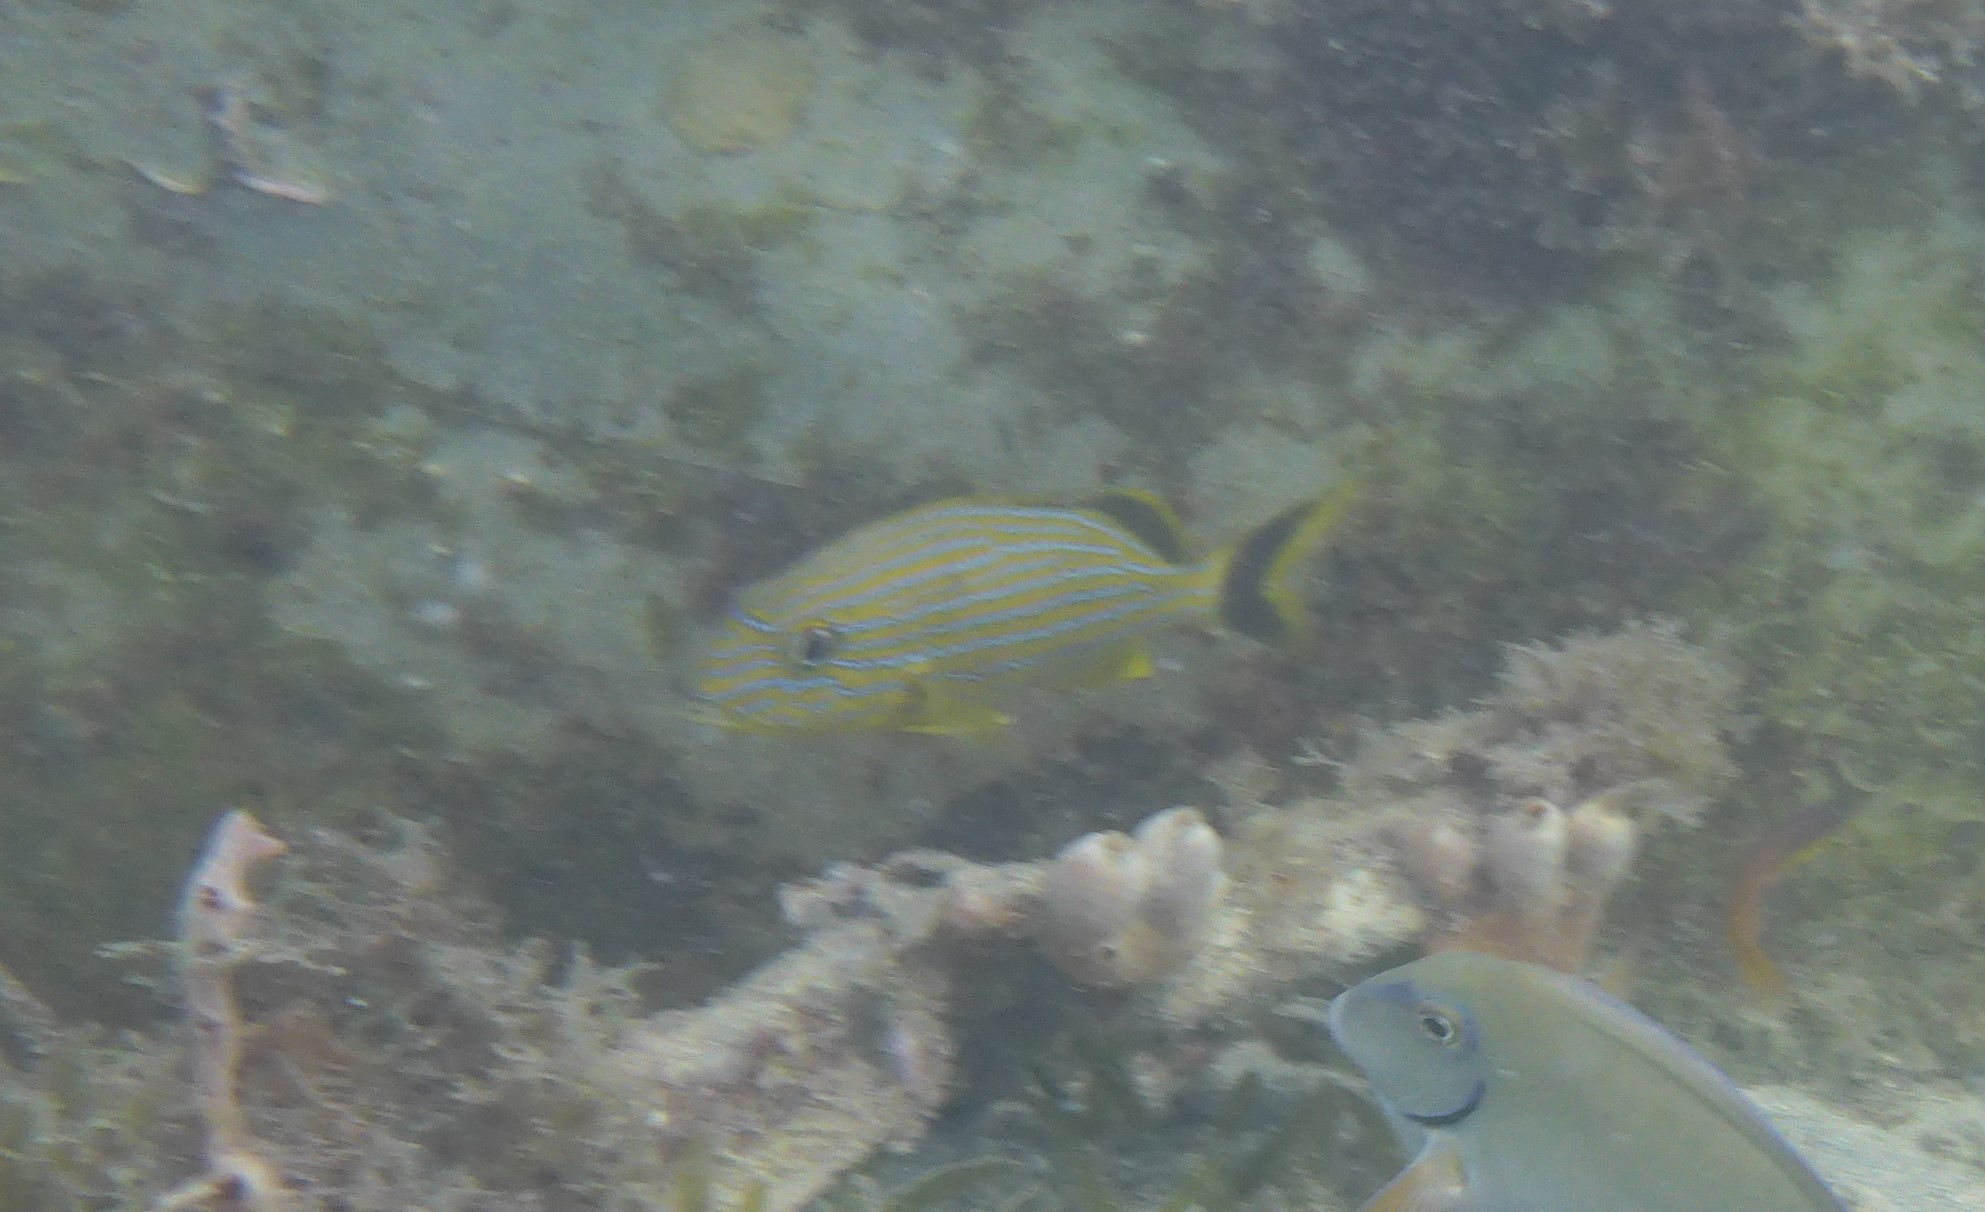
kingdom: Animalia
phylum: Chordata
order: Perciformes
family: Haemulidae
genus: Haemulon
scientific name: Haemulon sciurus
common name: Bluestriped grunt
